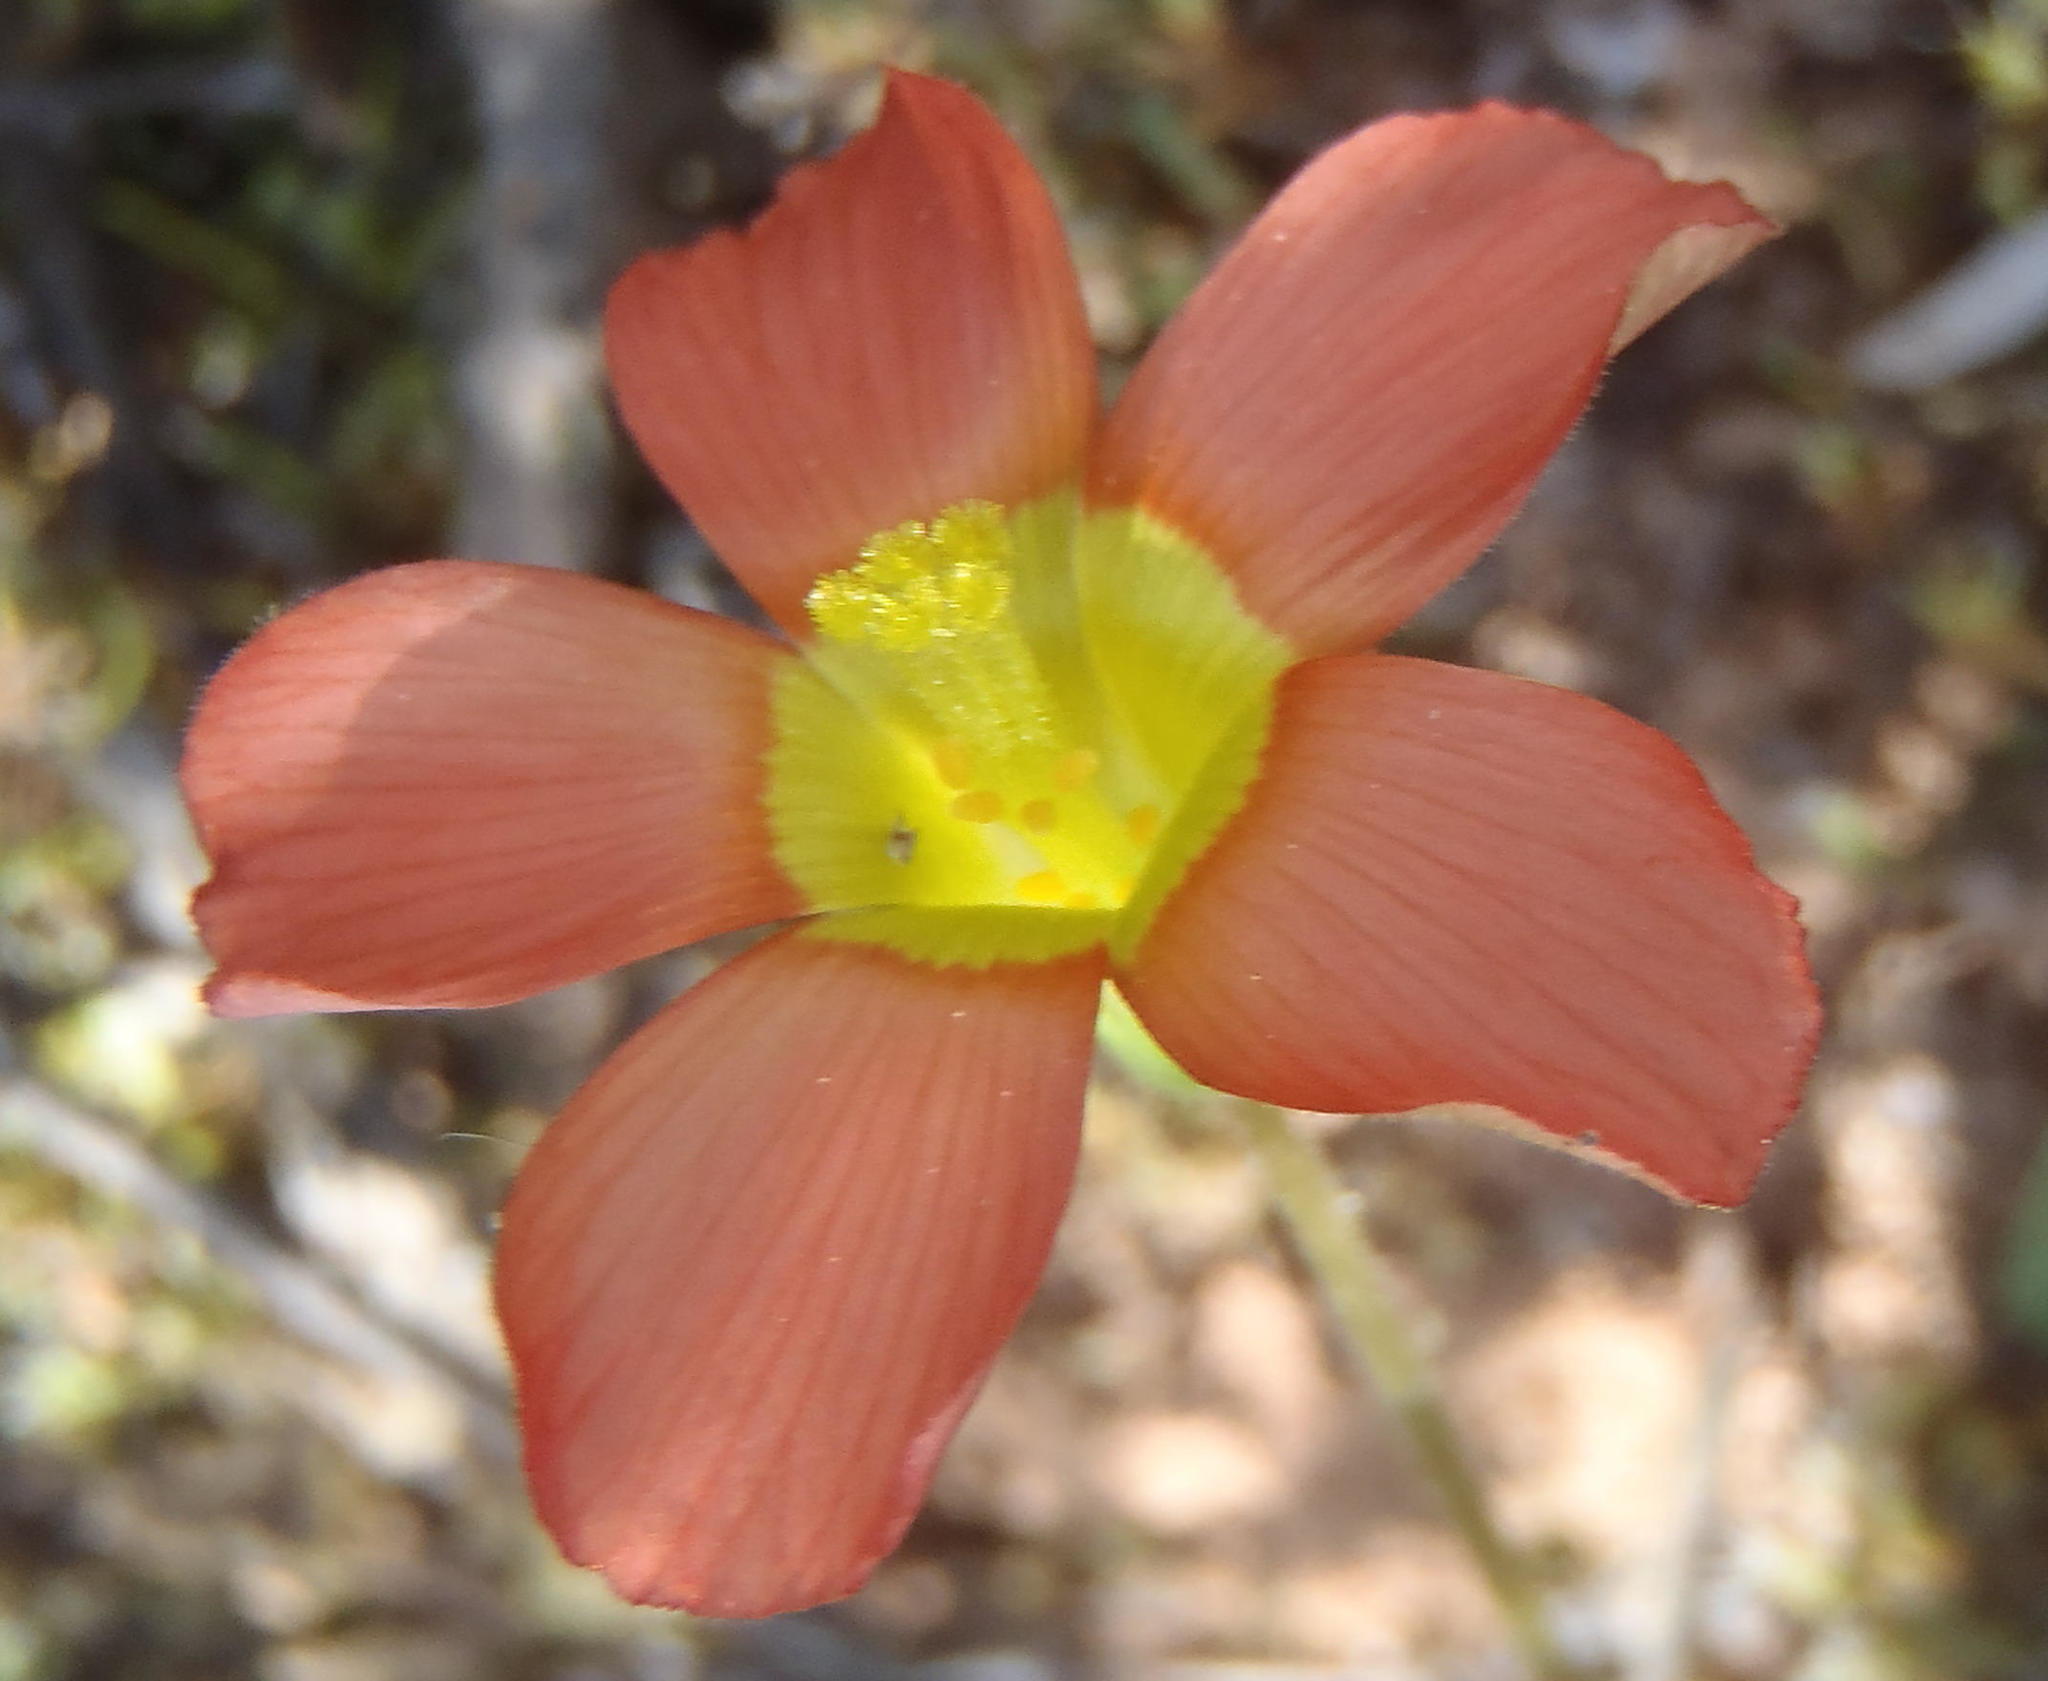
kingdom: Plantae
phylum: Tracheophyta
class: Magnoliopsida
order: Oxalidales
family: Oxalidaceae
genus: Oxalis
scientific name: Oxalis fergusoniae
